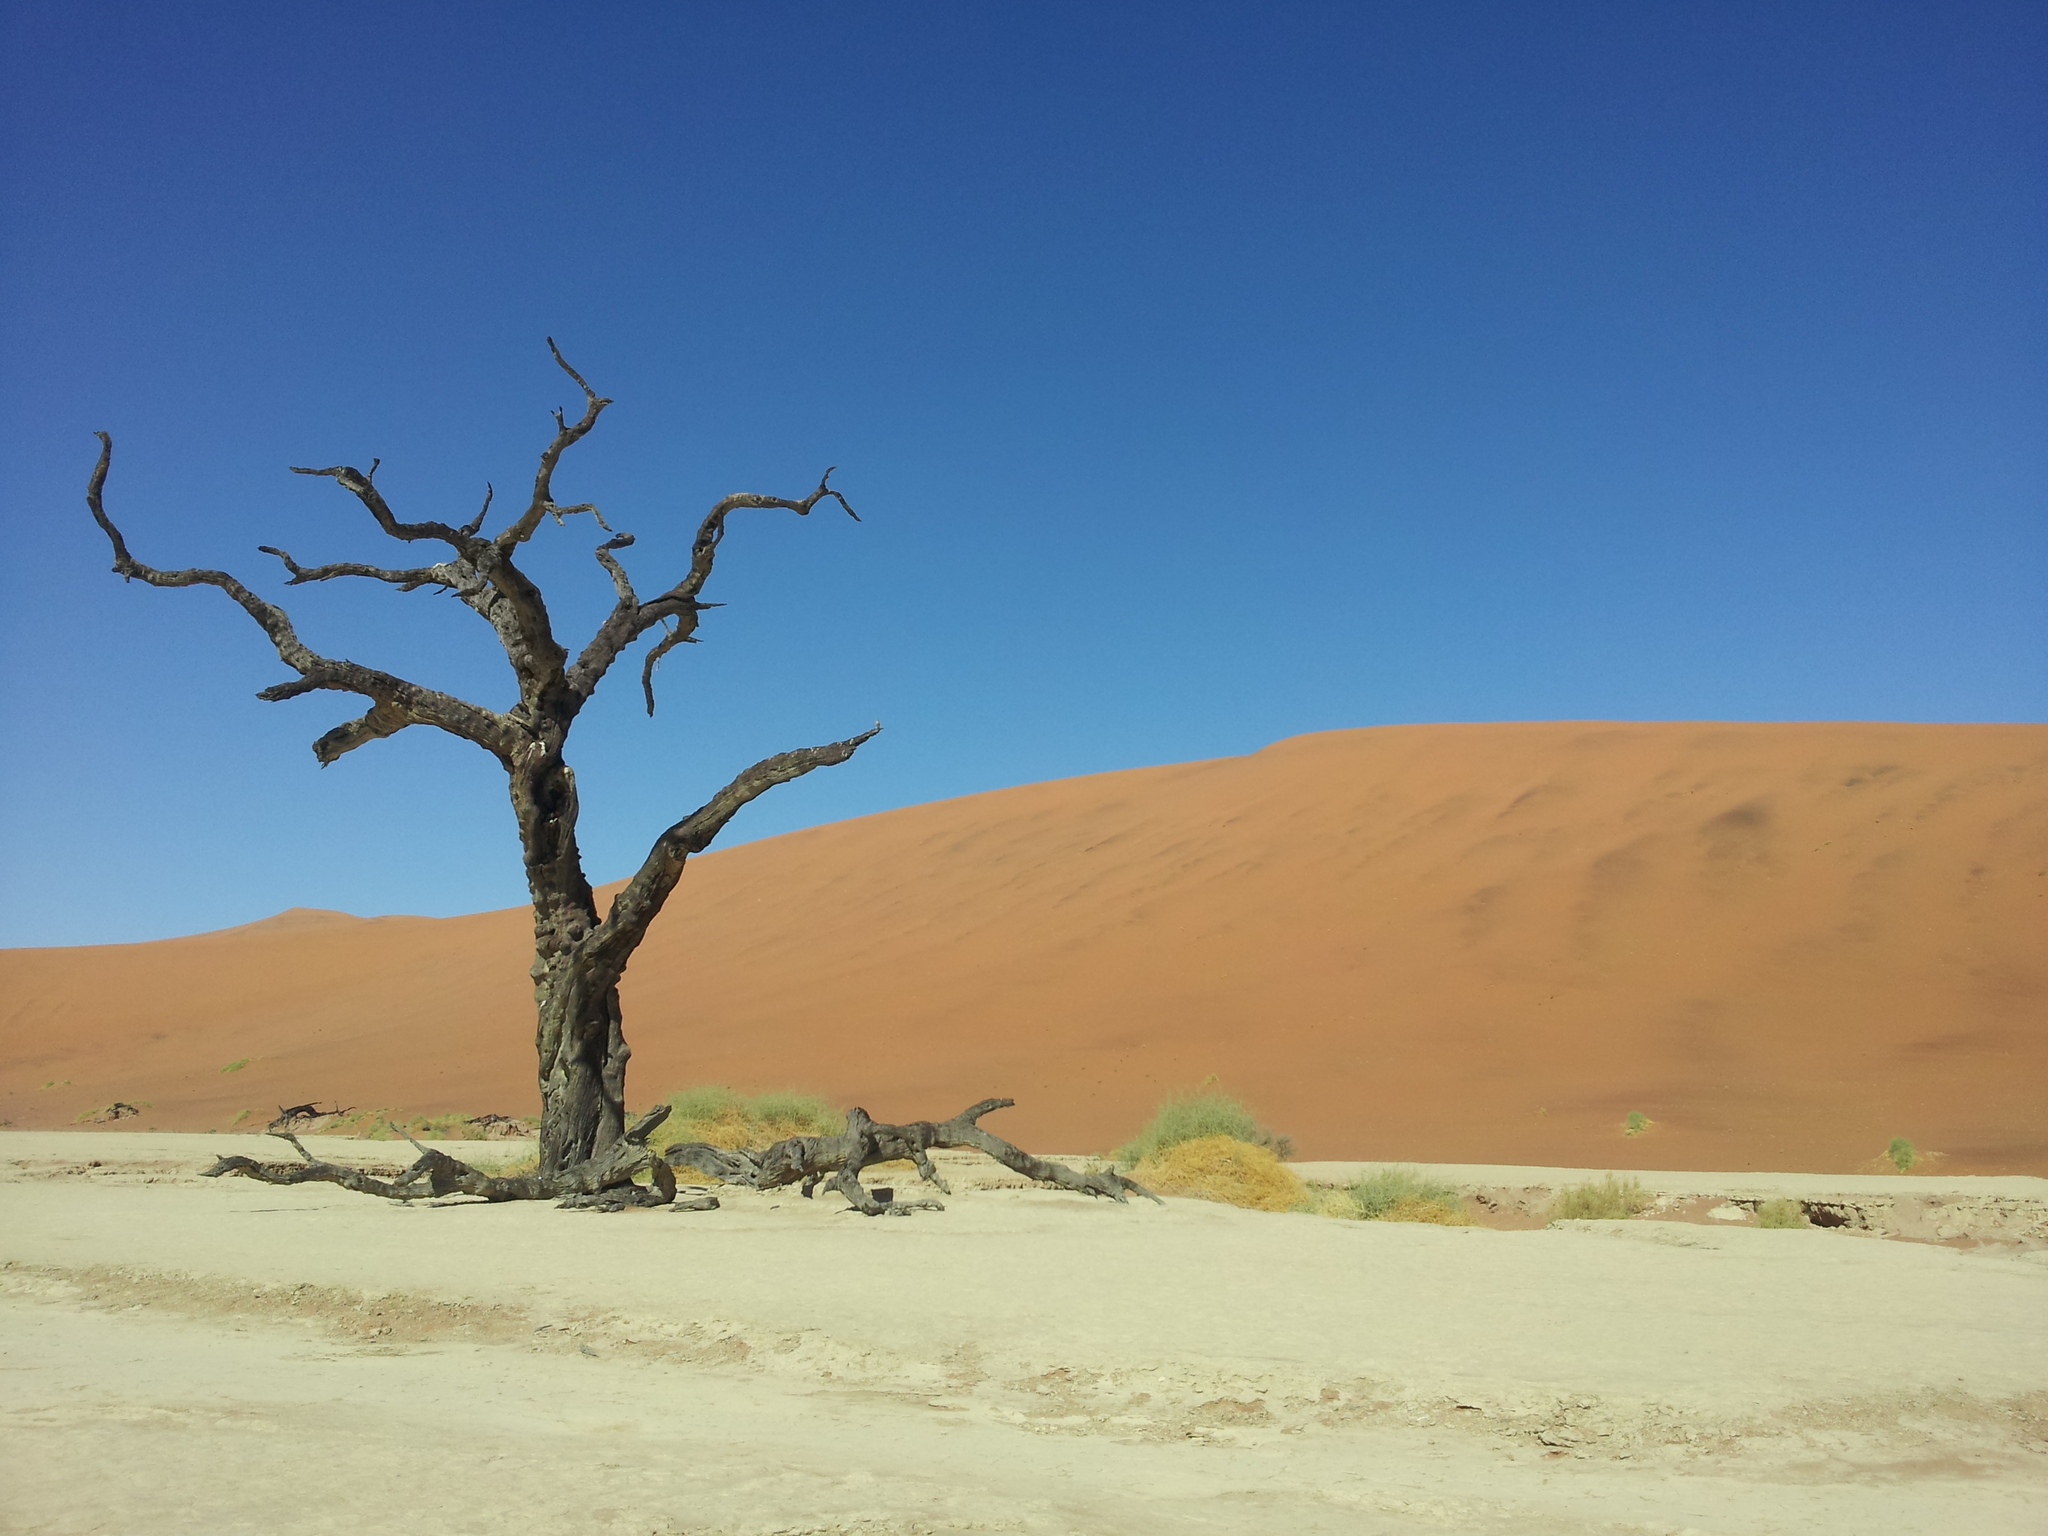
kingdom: Plantae
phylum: Tracheophyta
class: Magnoliopsida
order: Fabales
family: Fabaceae
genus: Vachellia
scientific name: Vachellia erioloba
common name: Camel thorn
